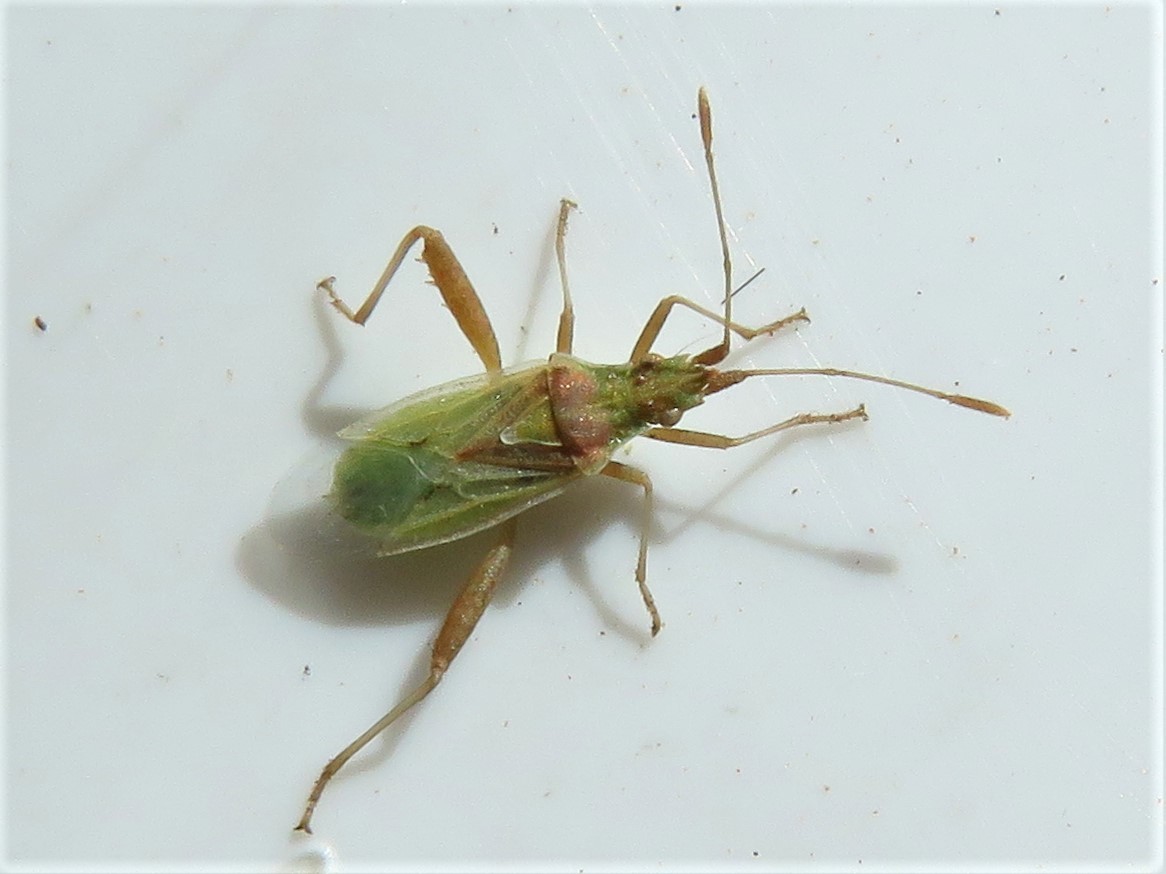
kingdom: Animalia
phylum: Arthropoda
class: Insecta
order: Hemiptera
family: Rhopalidae
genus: Harmostes
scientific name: Harmostes reflexulus
